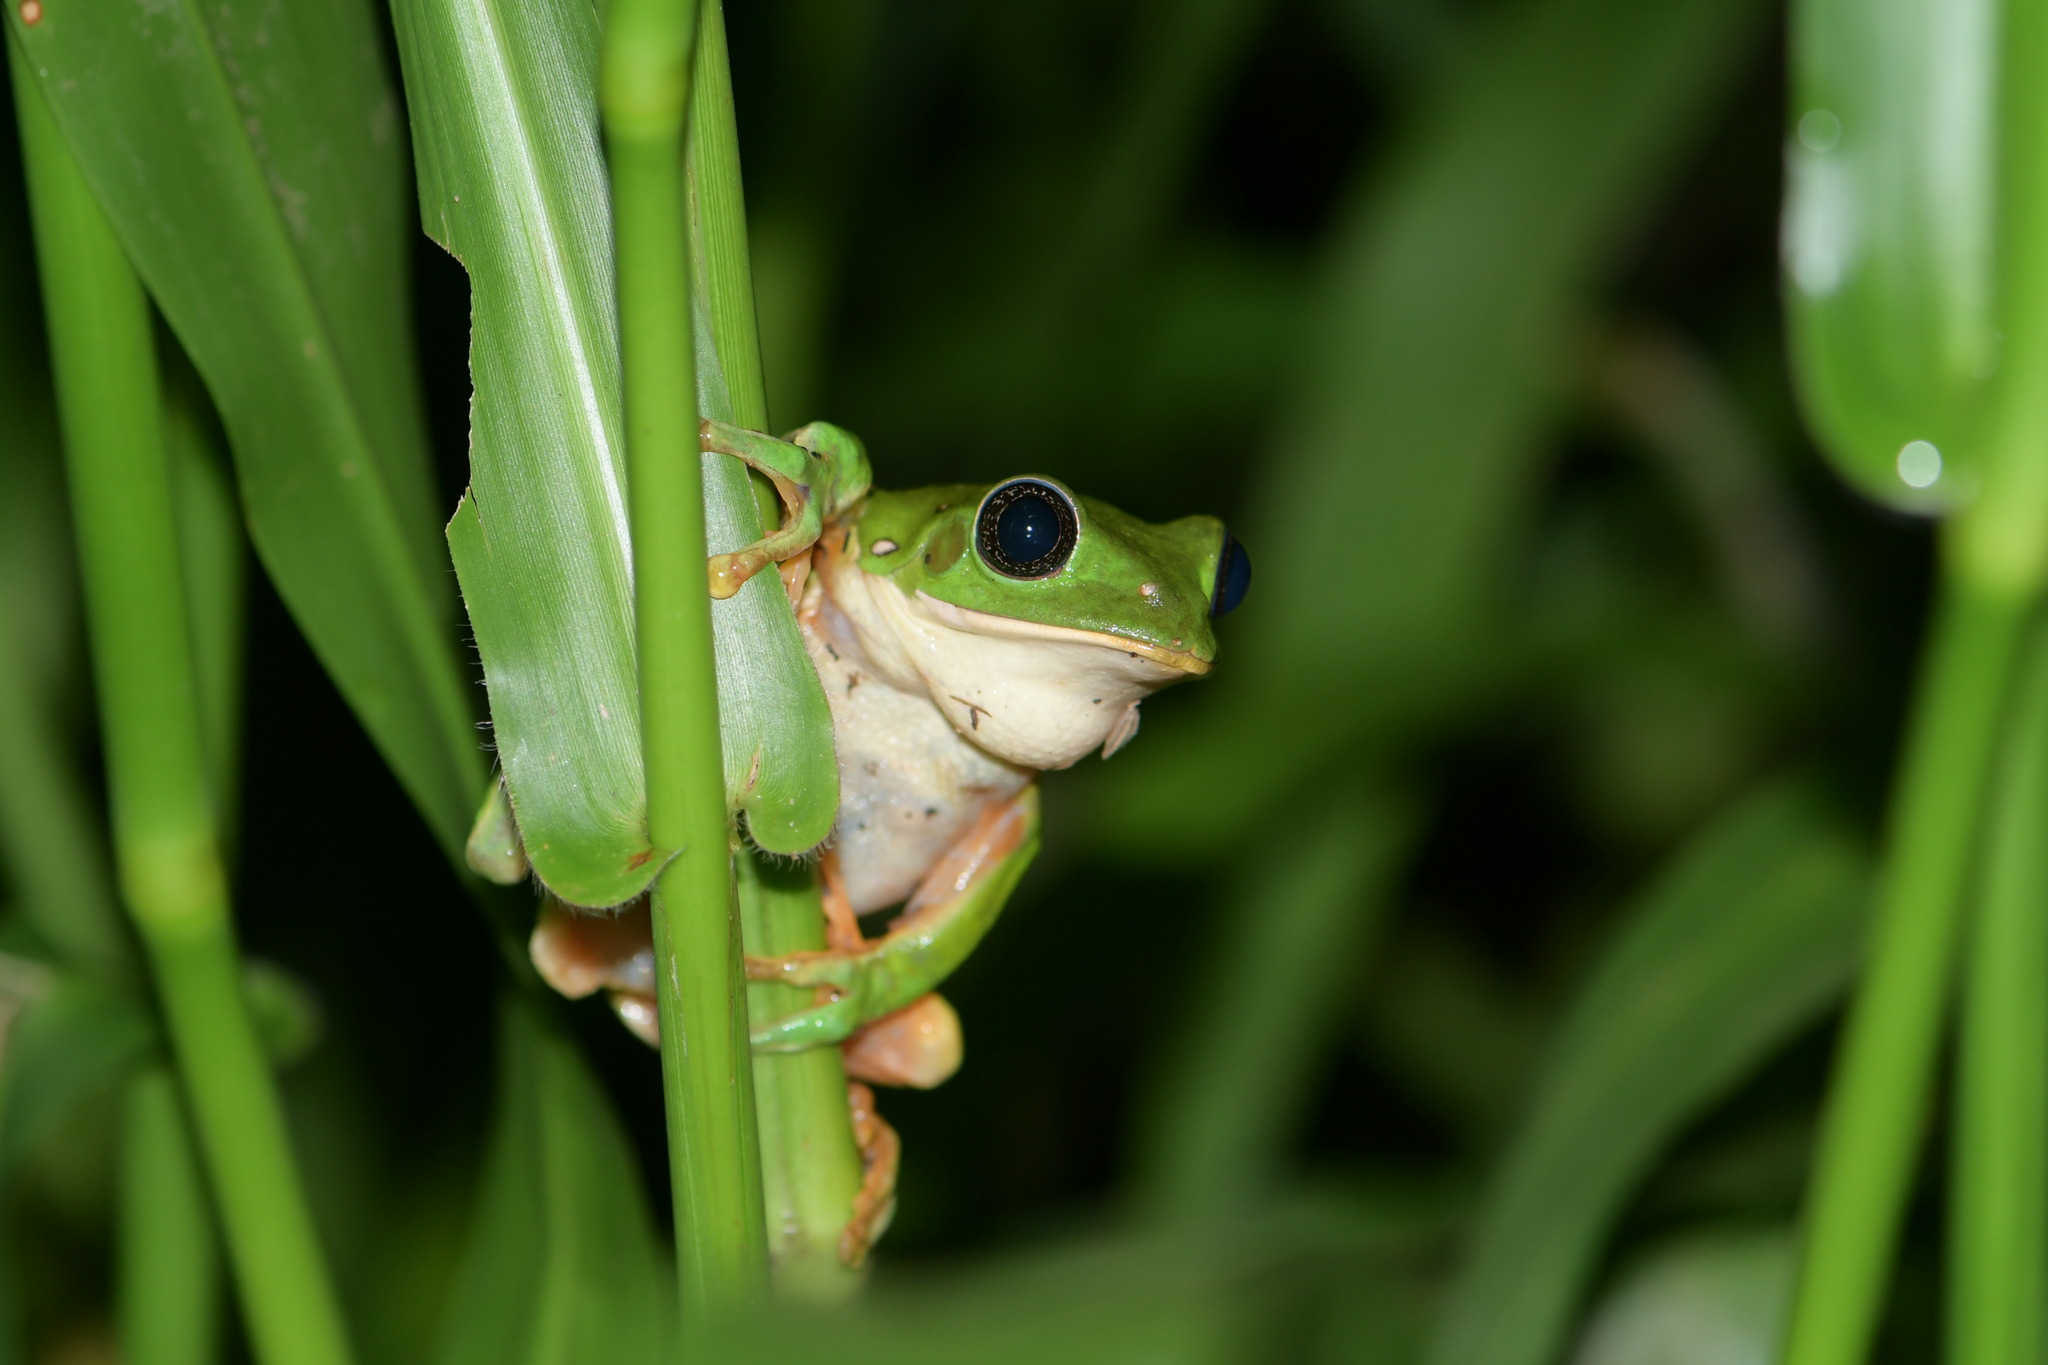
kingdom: Animalia
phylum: Chordata
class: Amphibia
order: Anura
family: Phyllomedusidae
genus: Agalychnis
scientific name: Agalychnis dacnicolor
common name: Mexican giant tree frog
